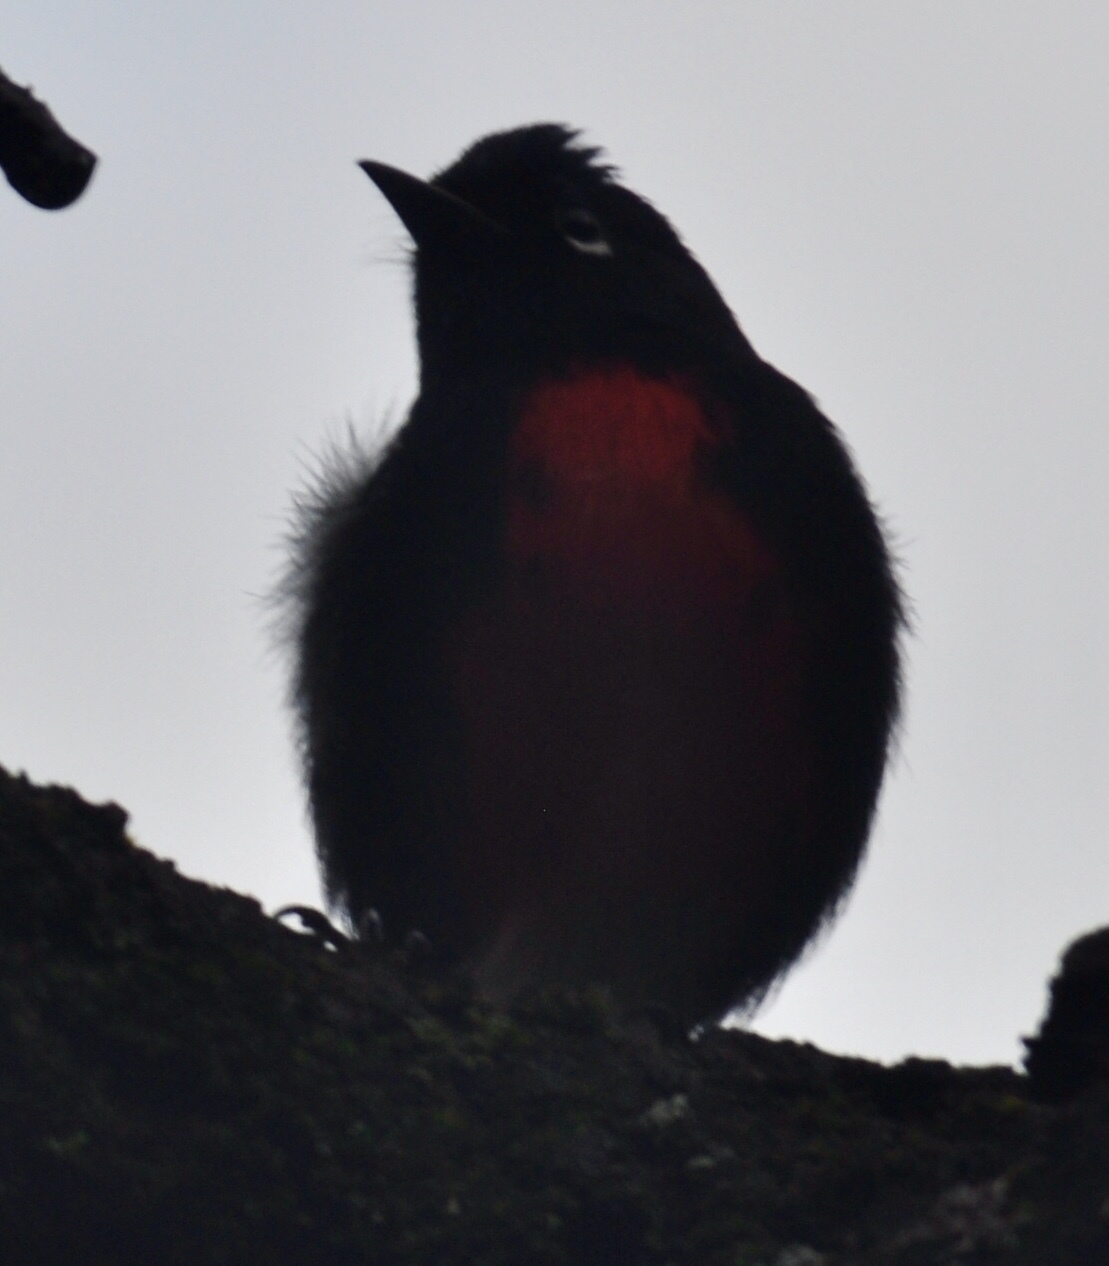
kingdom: Animalia
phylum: Chordata
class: Aves
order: Passeriformes
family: Parulidae
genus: Myioborus
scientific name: Myioborus pictus
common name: Painted whitestart
